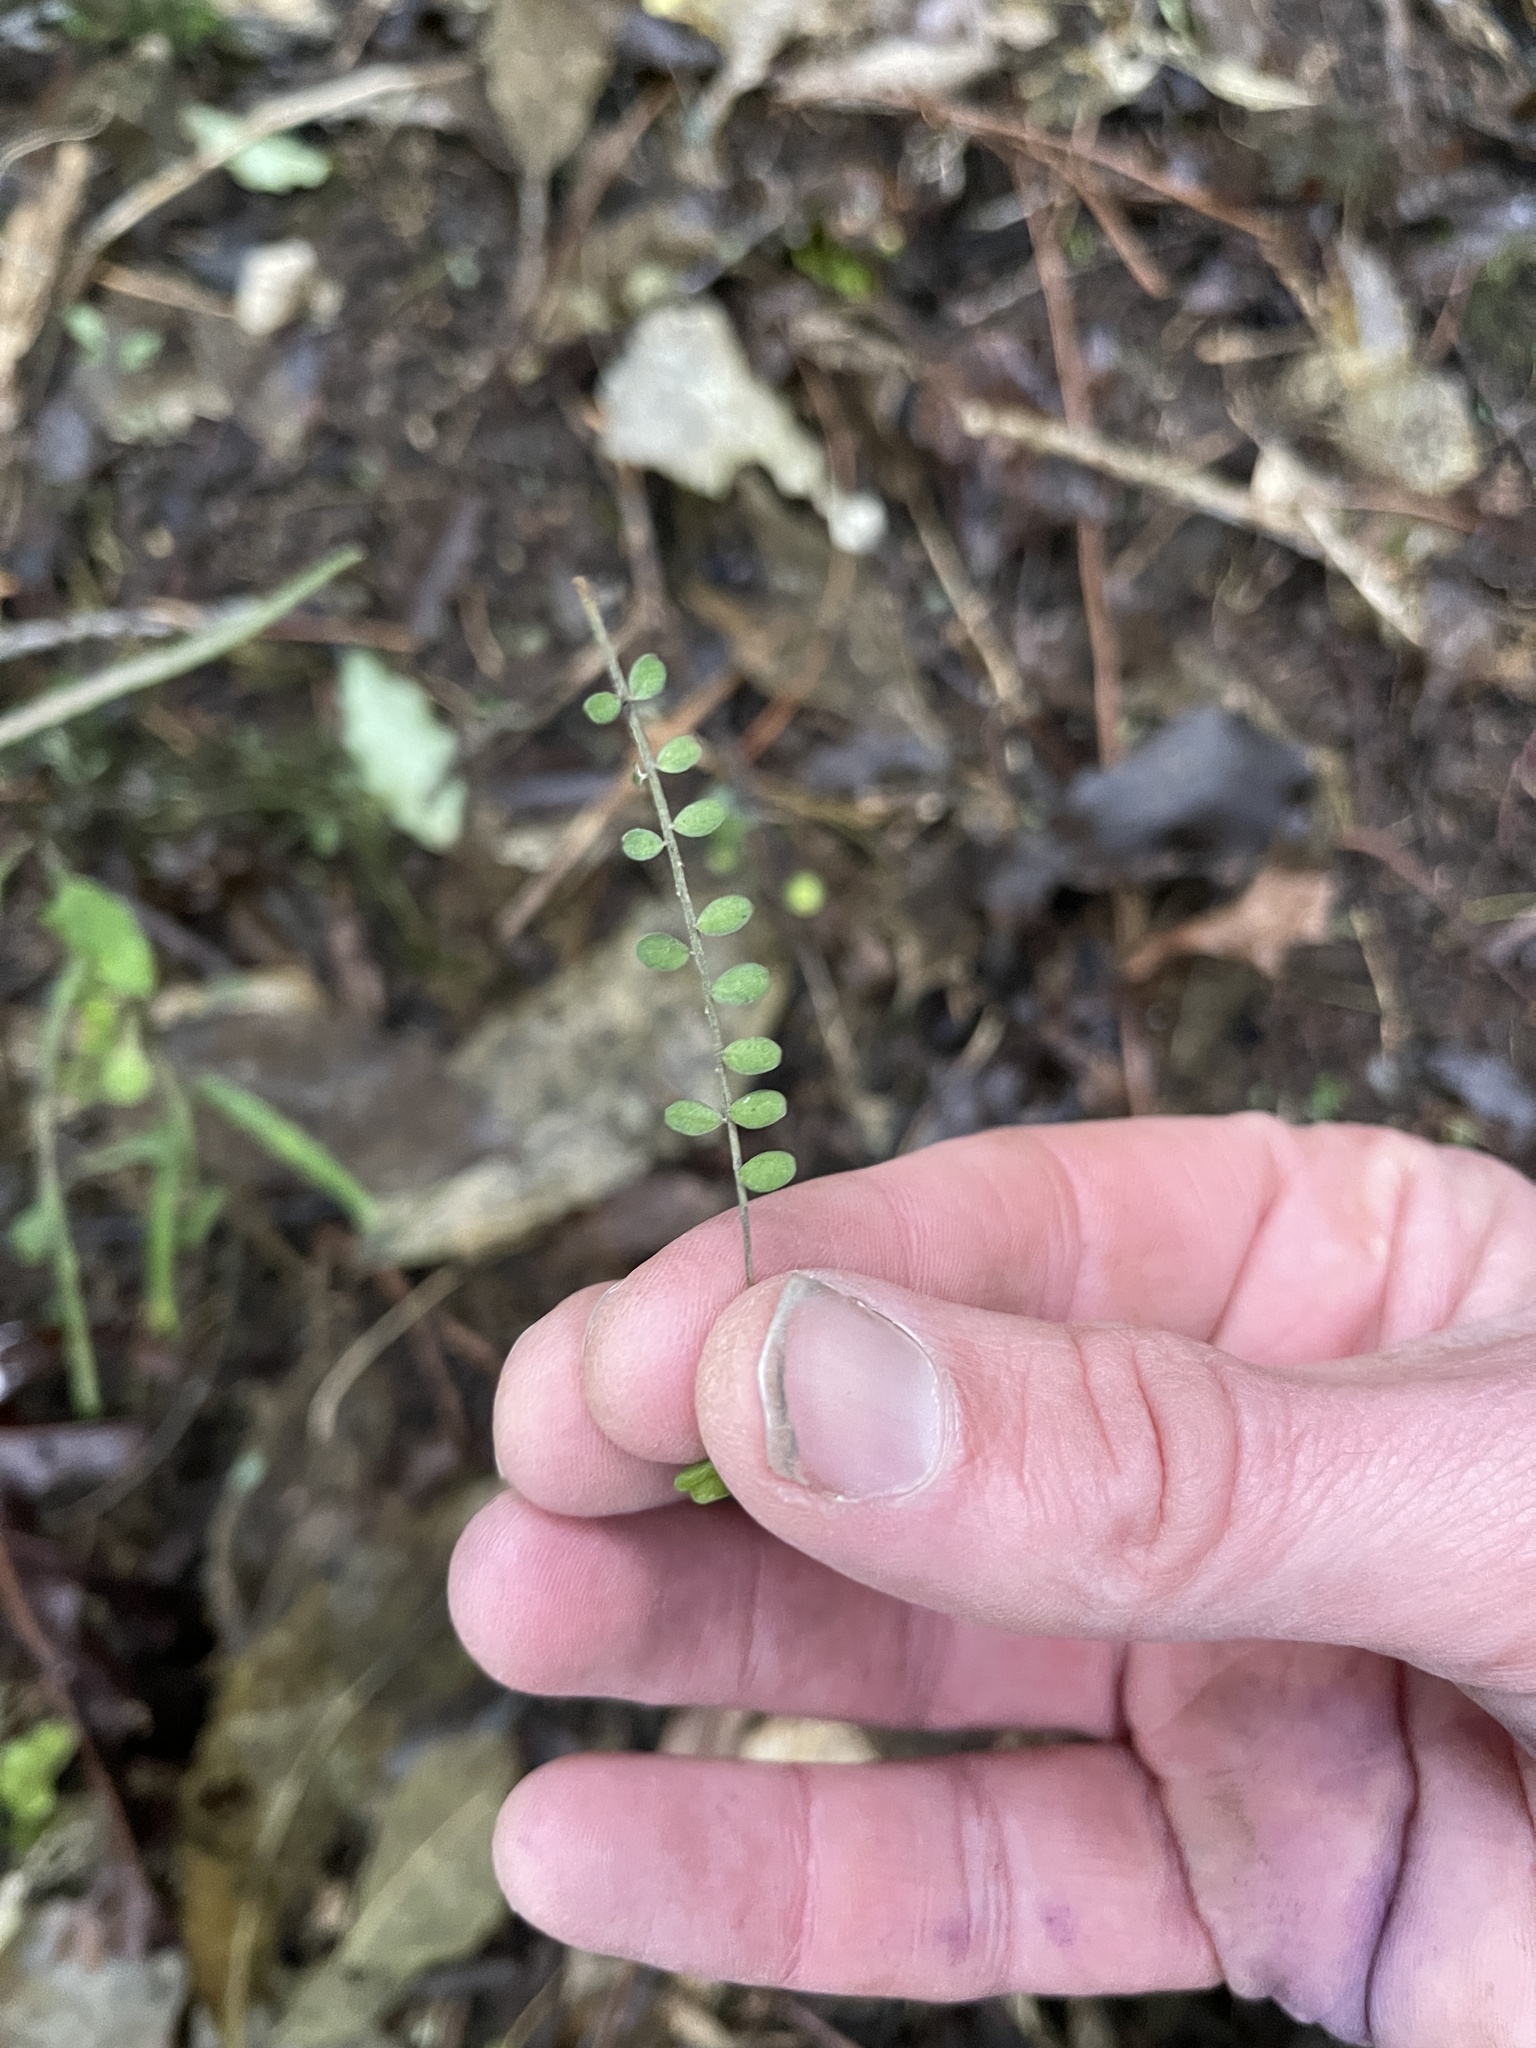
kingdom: Plantae
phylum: Tracheophyta
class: Magnoliopsida
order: Fabales
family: Fabaceae
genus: Sophora
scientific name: Sophora microphylla
